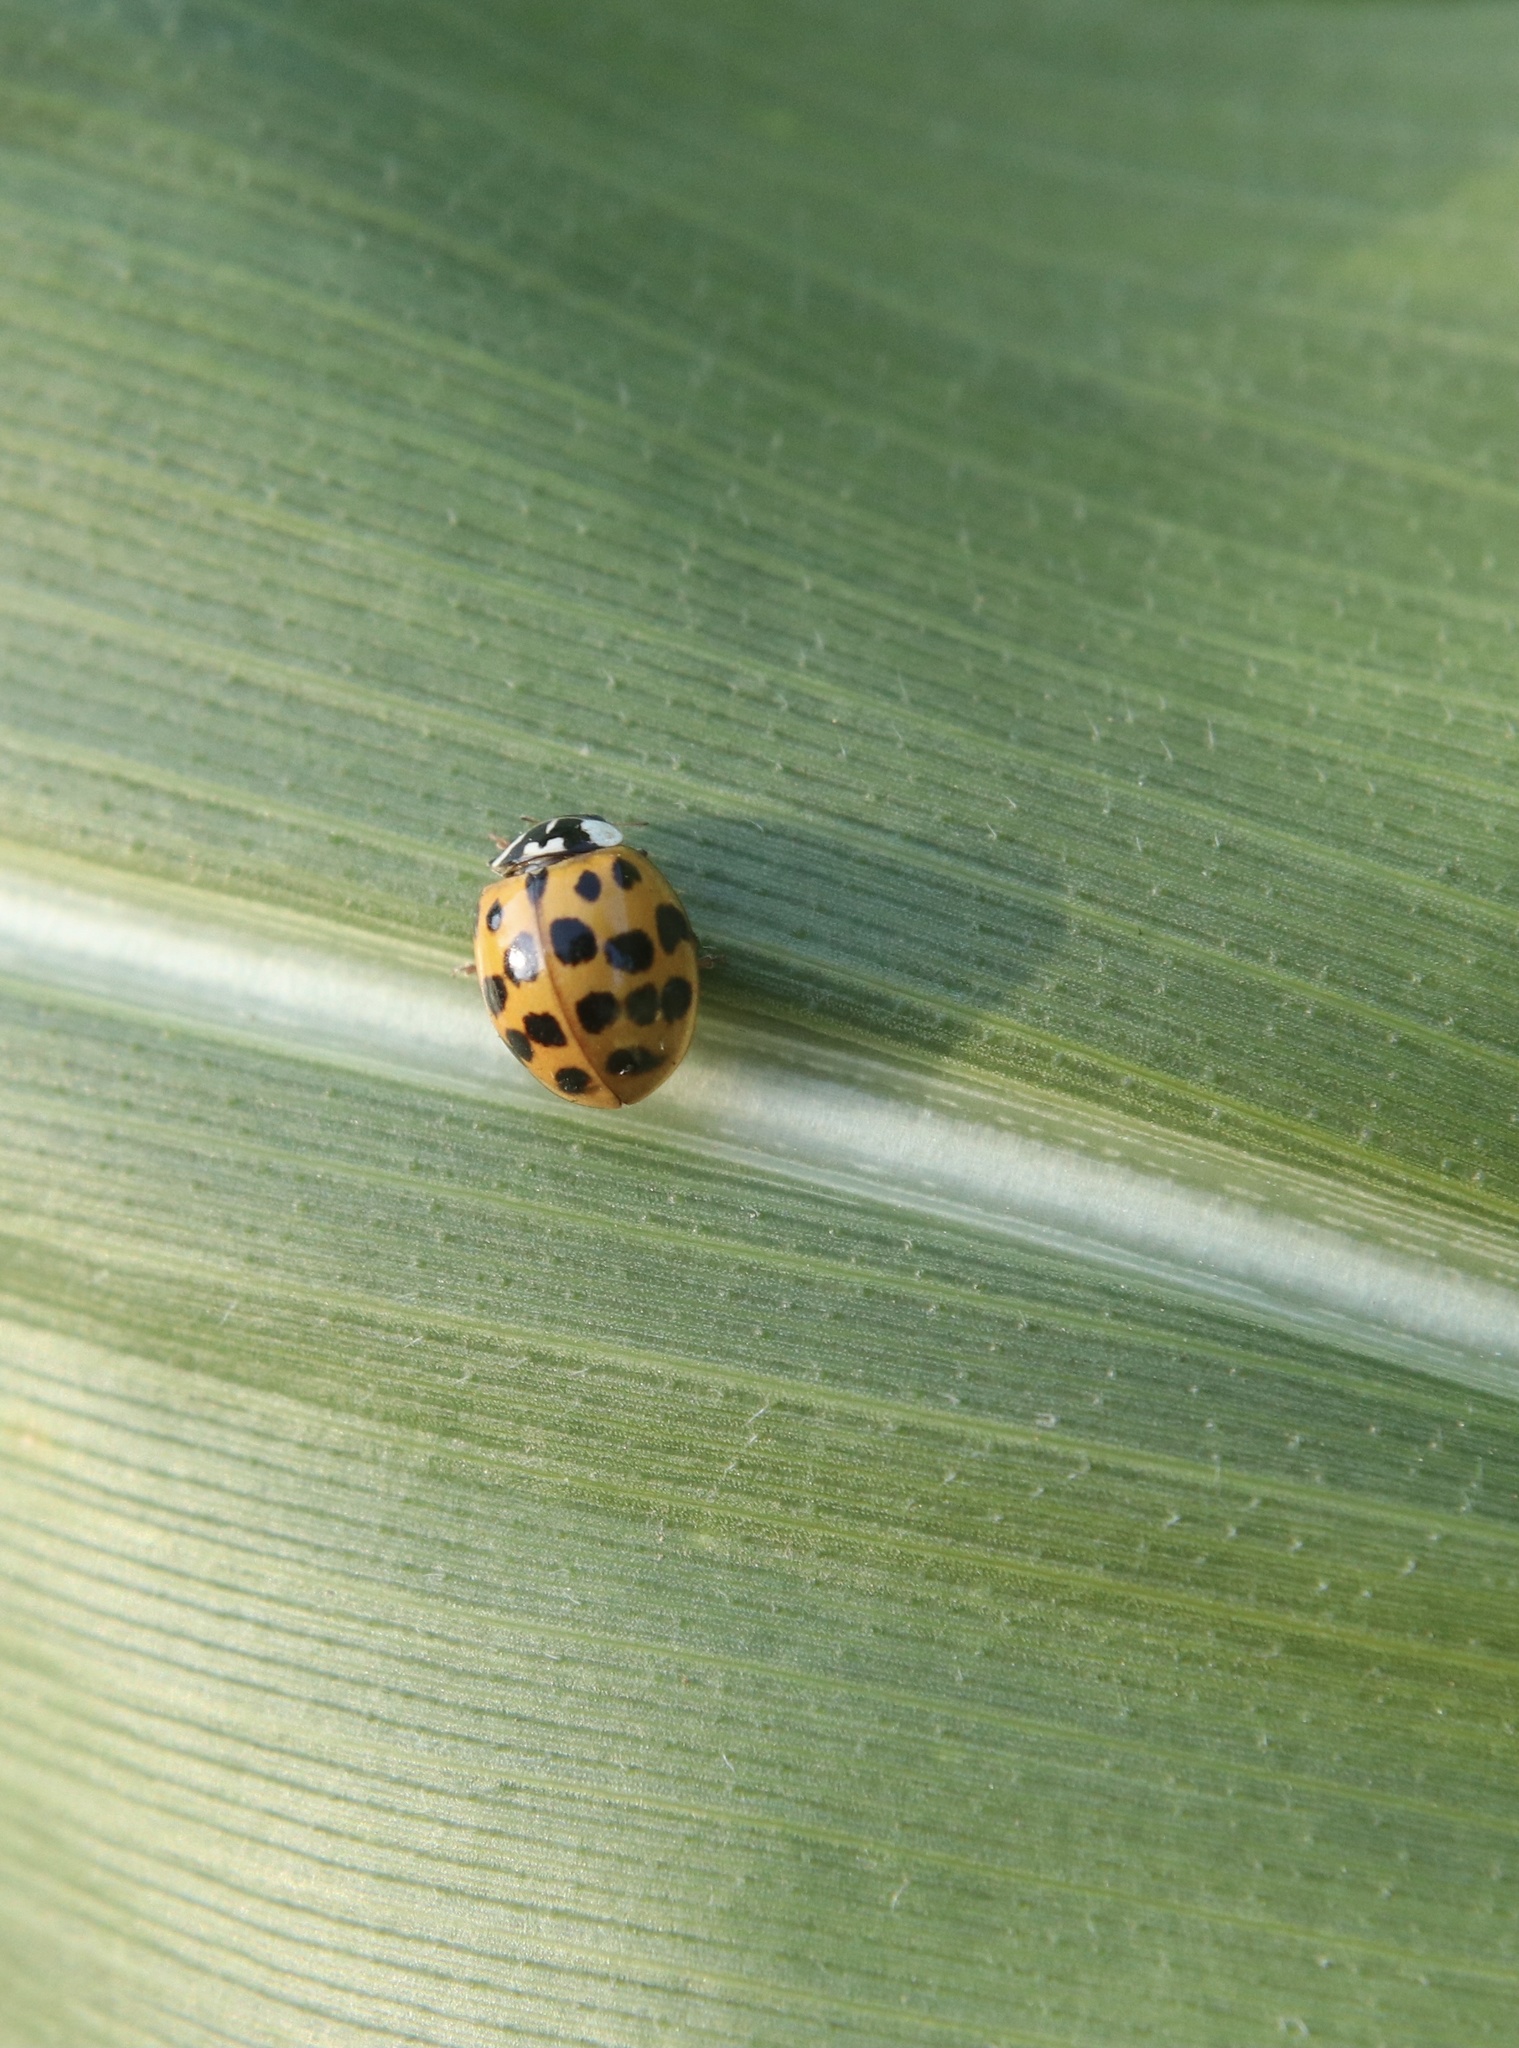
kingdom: Animalia
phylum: Arthropoda
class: Insecta
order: Coleoptera
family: Coccinellidae
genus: Harmonia
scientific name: Harmonia axyridis
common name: Harlequin ladybird
